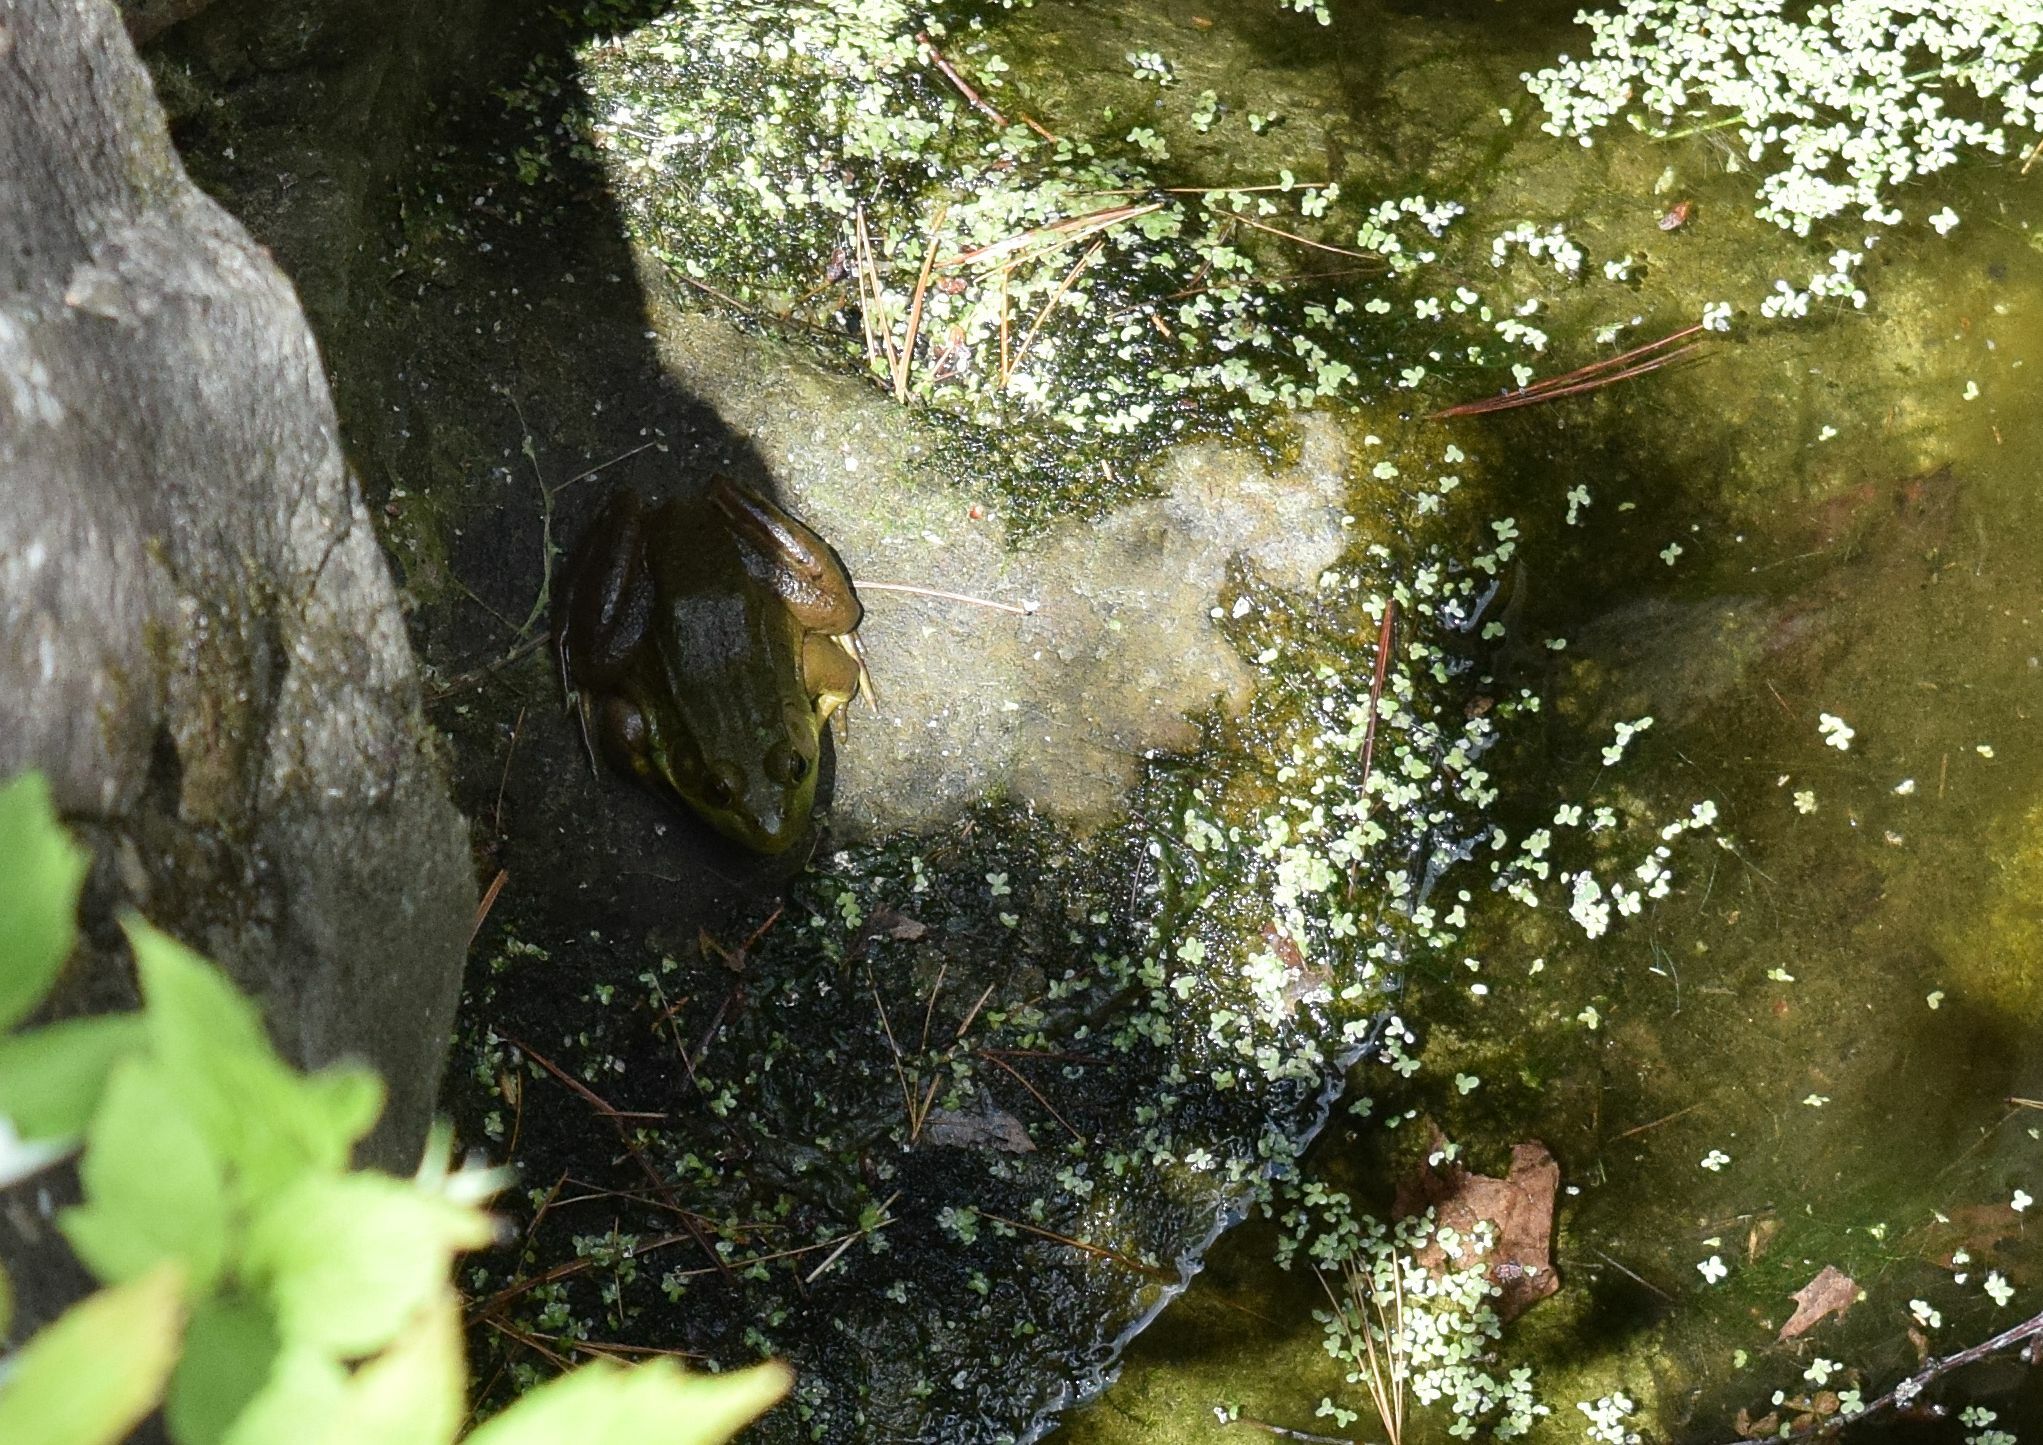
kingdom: Animalia
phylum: Chordata
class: Amphibia
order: Anura
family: Ranidae
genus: Lithobates
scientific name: Lithobates clamitans
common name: Green frog
